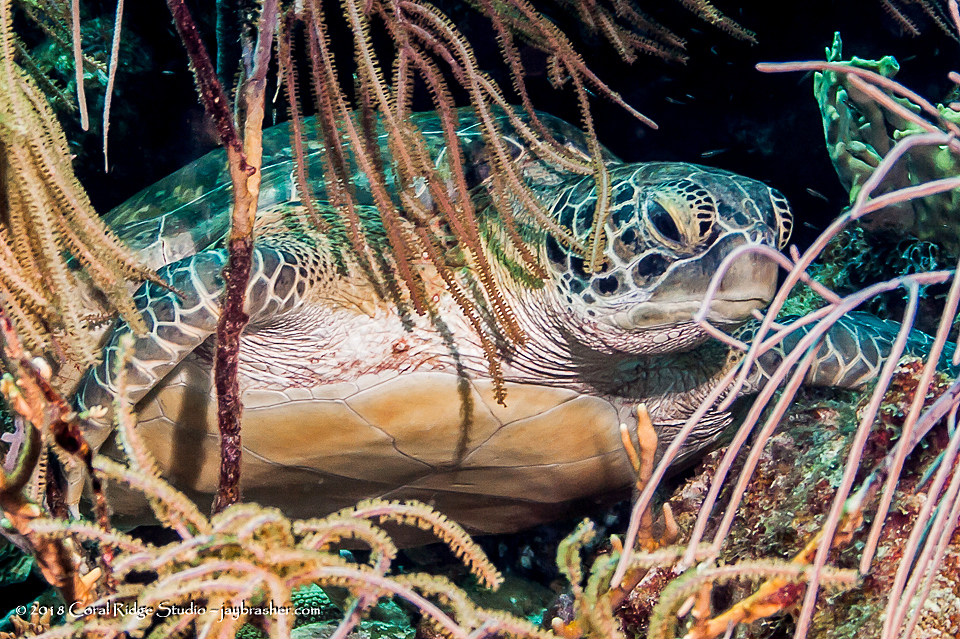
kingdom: Animalia
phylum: Chordata
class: Testudines
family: Cheloniidae
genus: Chelonia
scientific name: Chelonia mydas
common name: Green turtle
